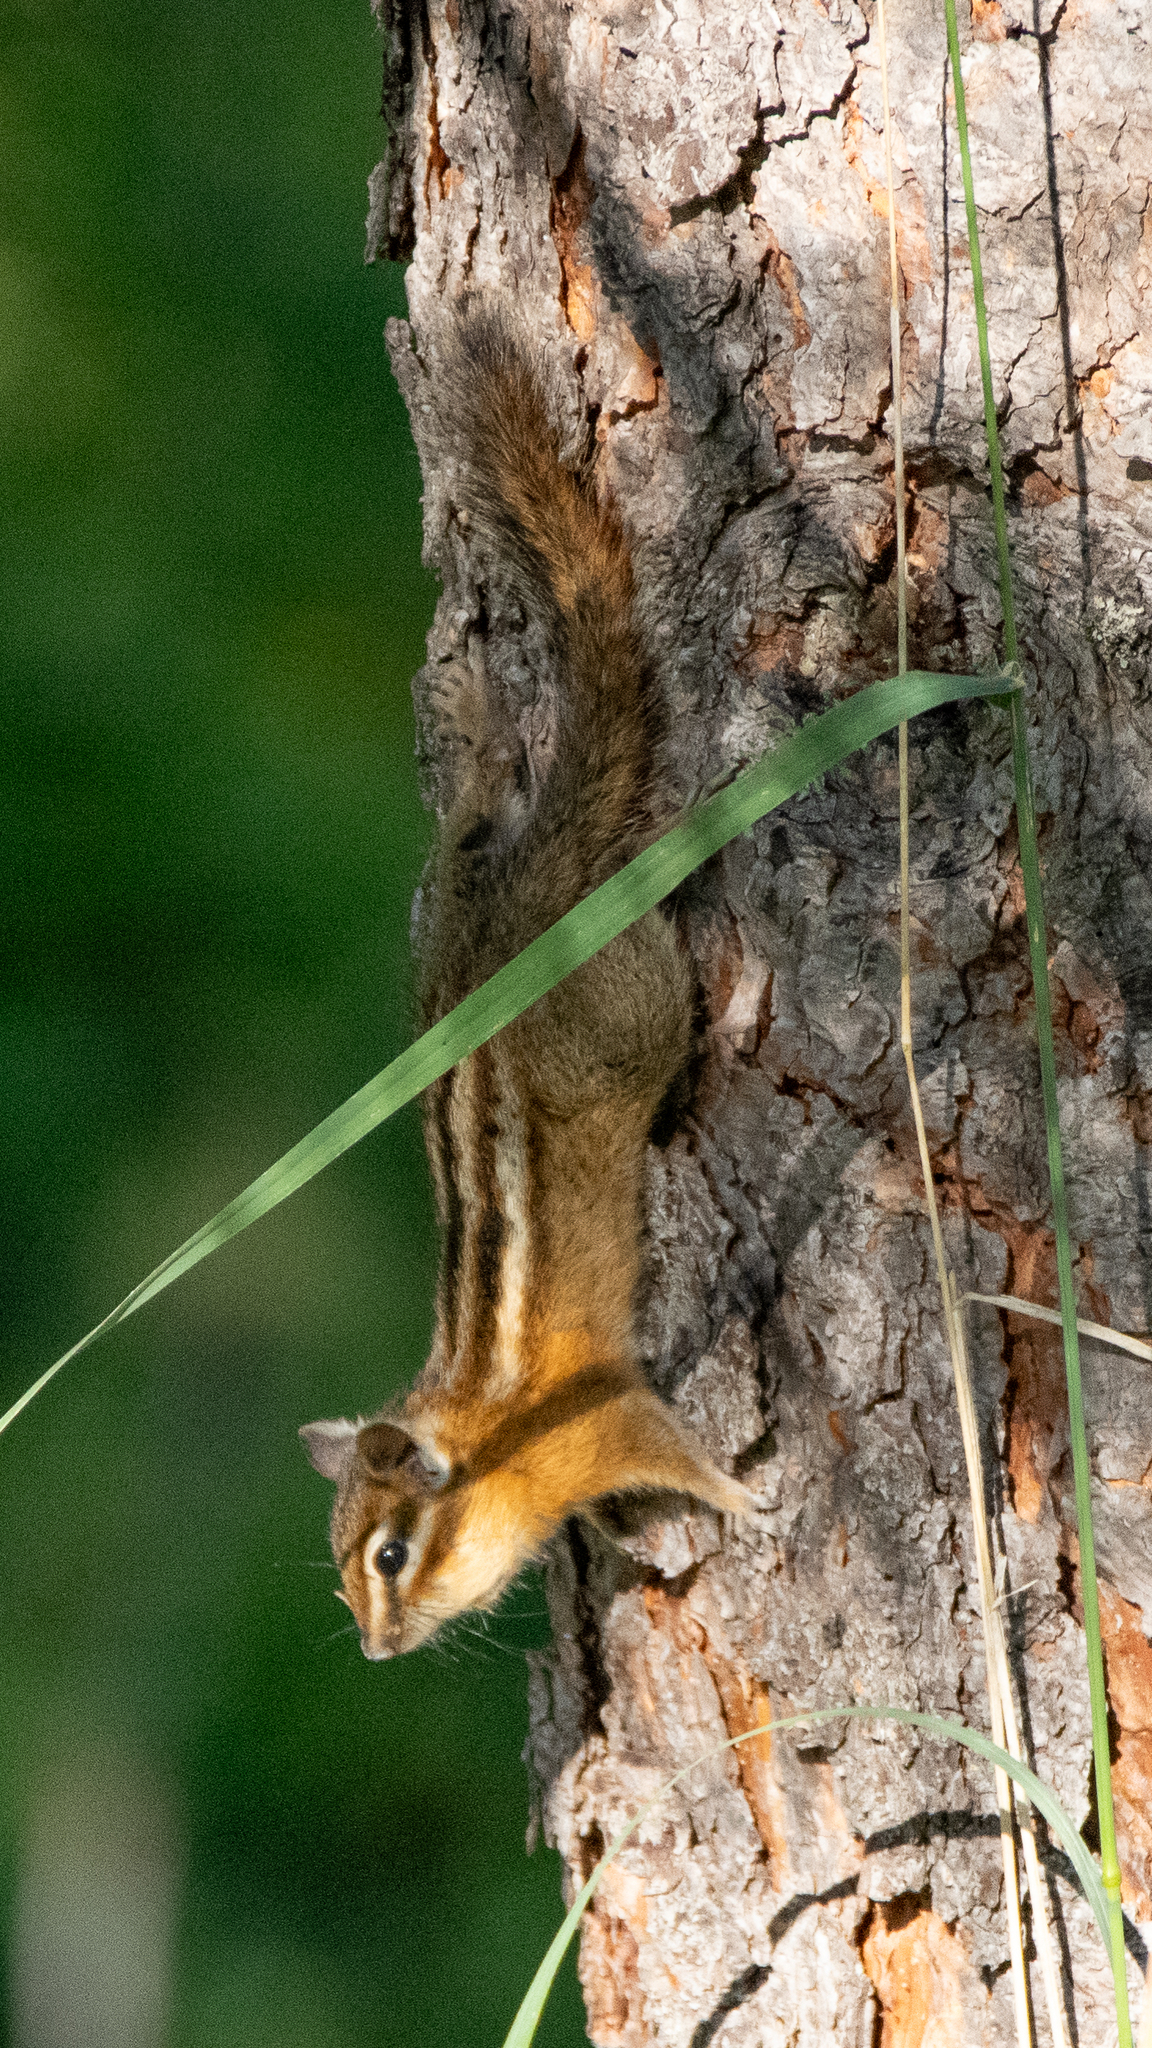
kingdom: Animalia
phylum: Chordata
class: Mammalia
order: Rodentia
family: Sciuridae
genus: Tamias
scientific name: Tamias amoenus
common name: Yellow-pine chipmunk
